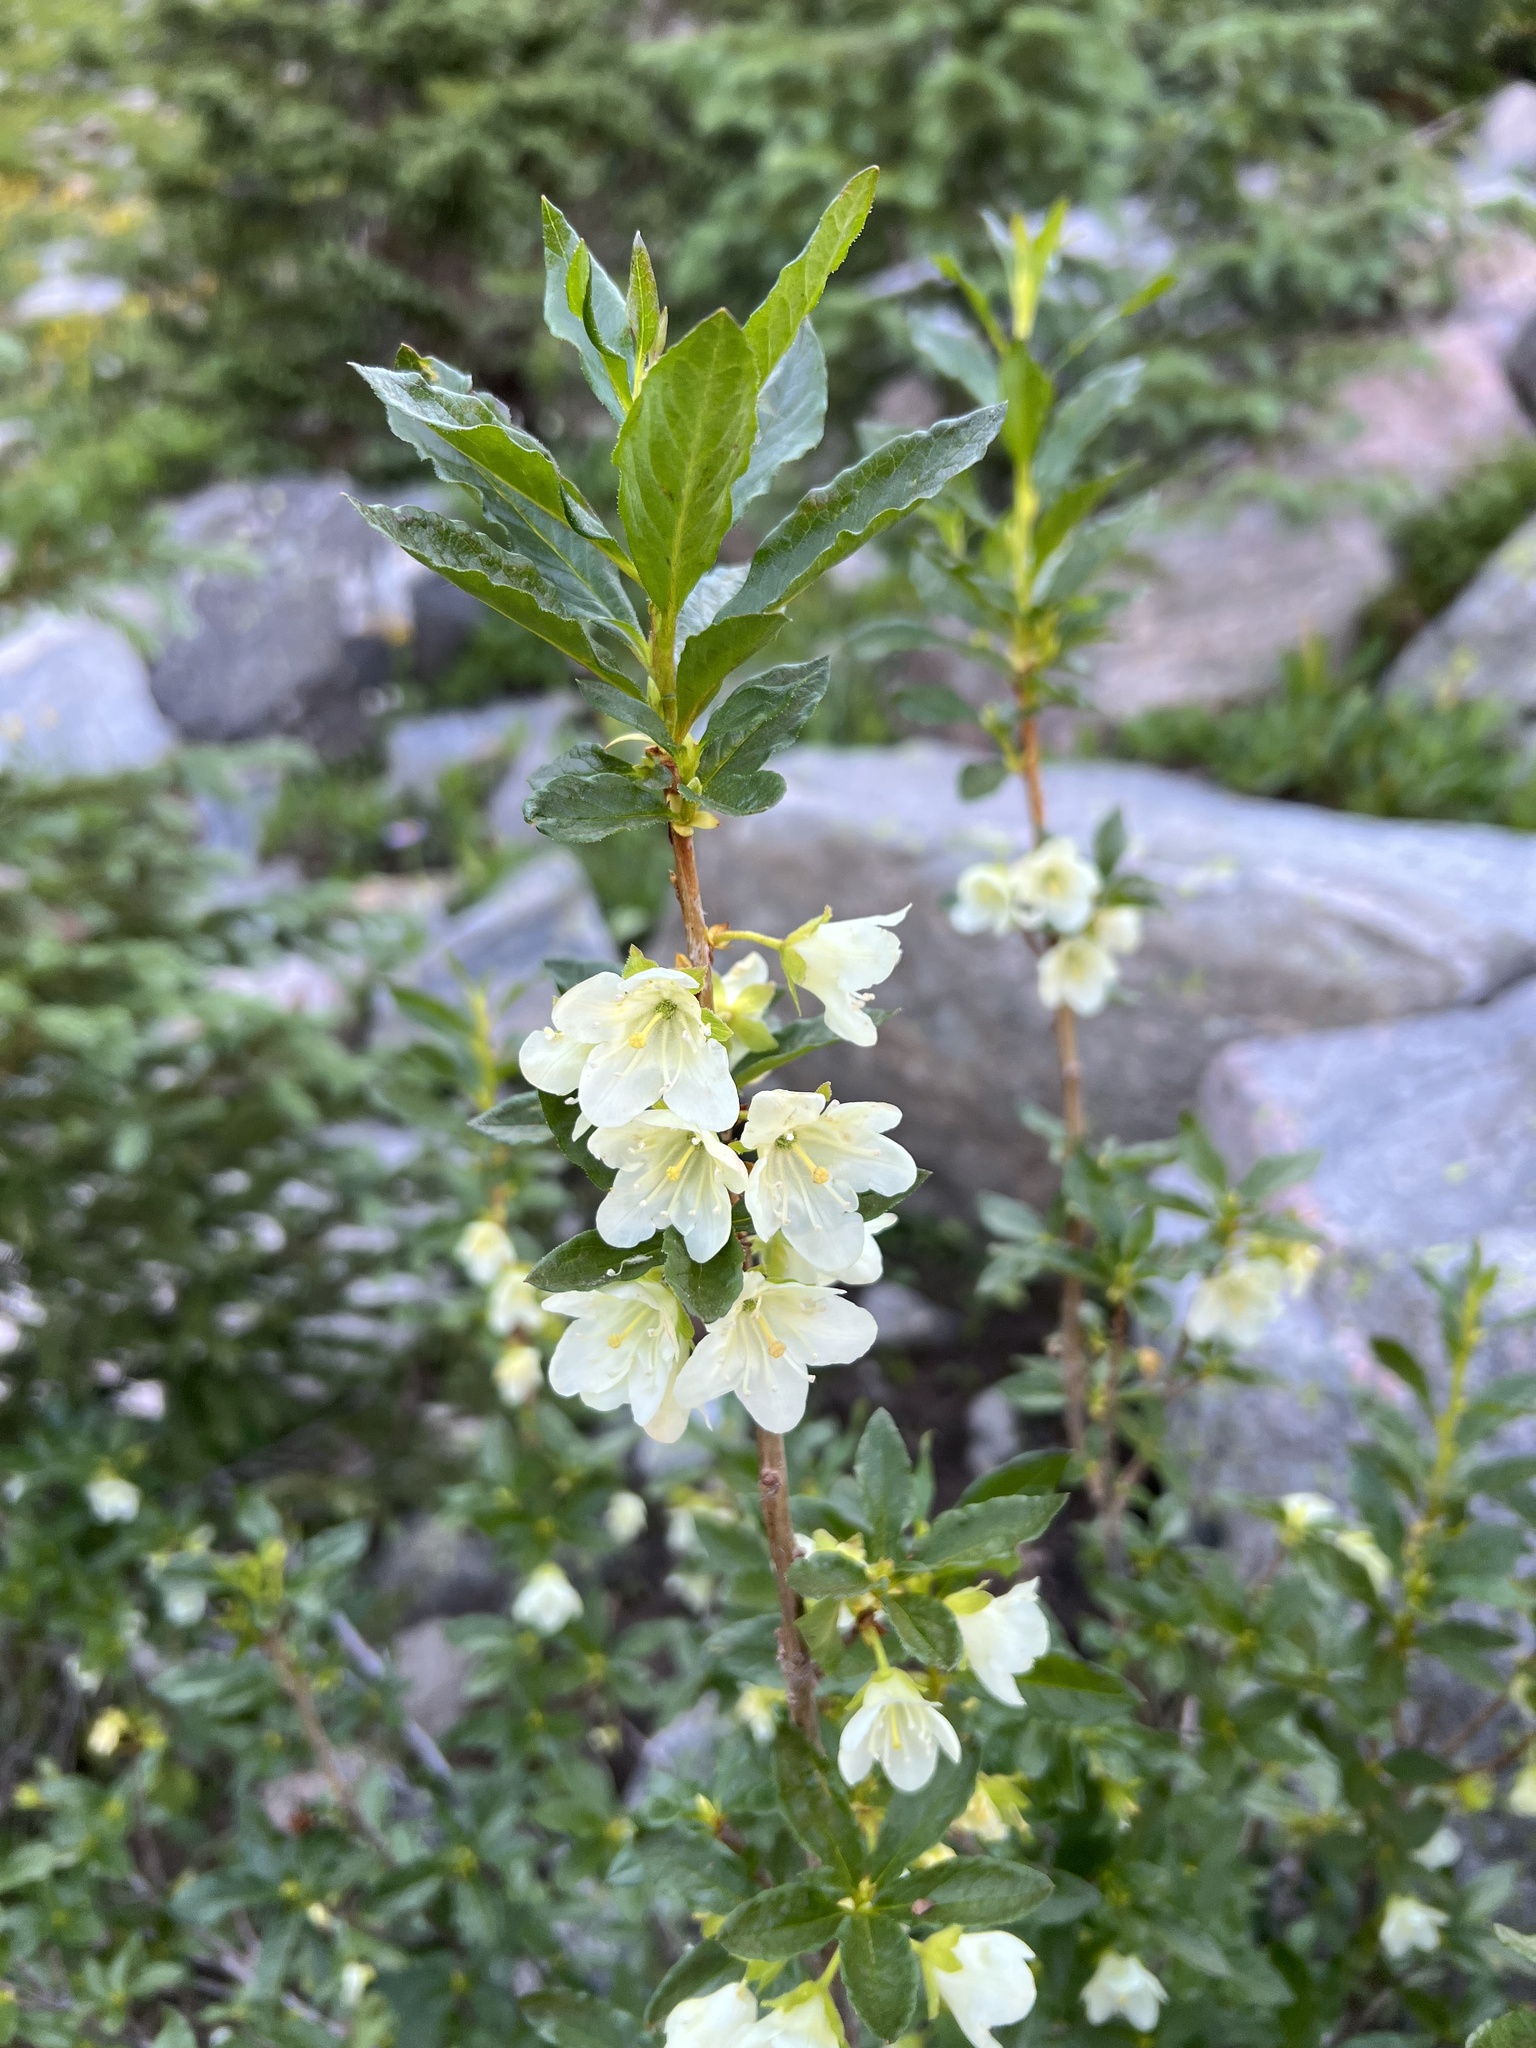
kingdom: Plantae
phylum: Tracheophyta
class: Magnoliopsida
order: Ericales
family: Ericaceae
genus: Rhododendron
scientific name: Rhododendron albiflorum
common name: White rhododendron
